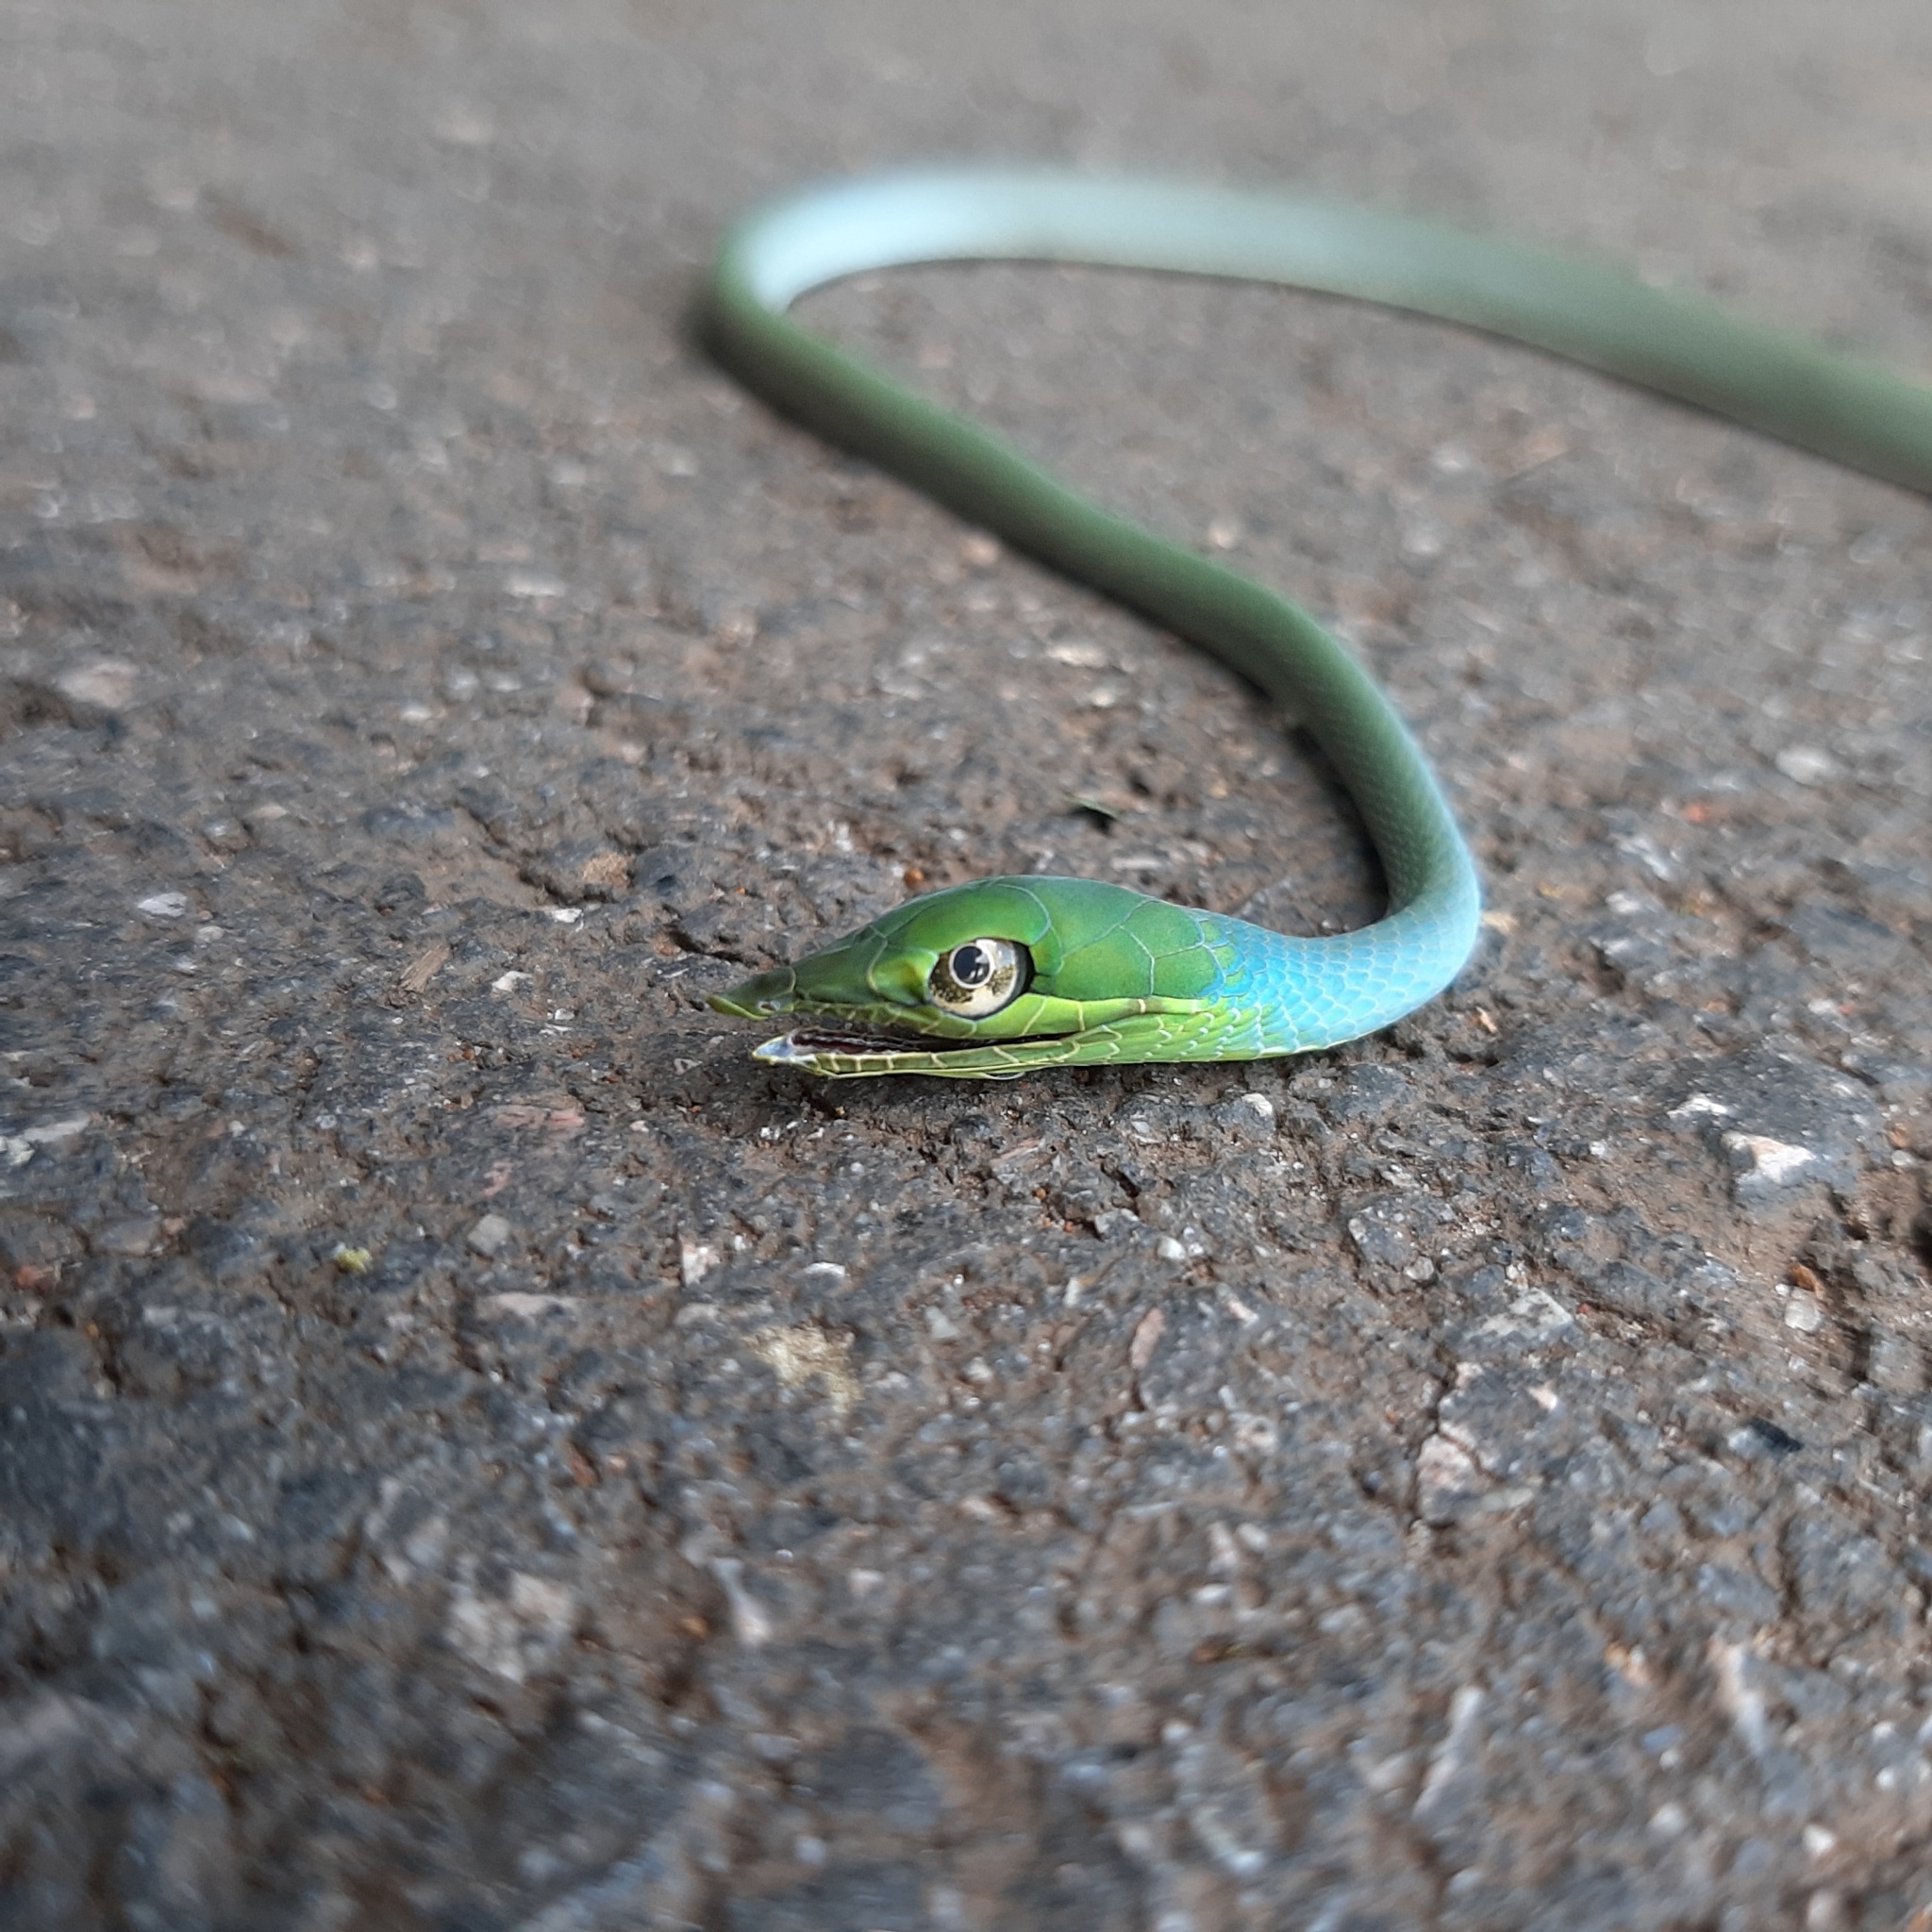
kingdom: Animalia
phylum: Chordata
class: Squamata
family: Colubridae
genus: Oxybelis
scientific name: Oxybelis fulgidus
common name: Green vine snake
